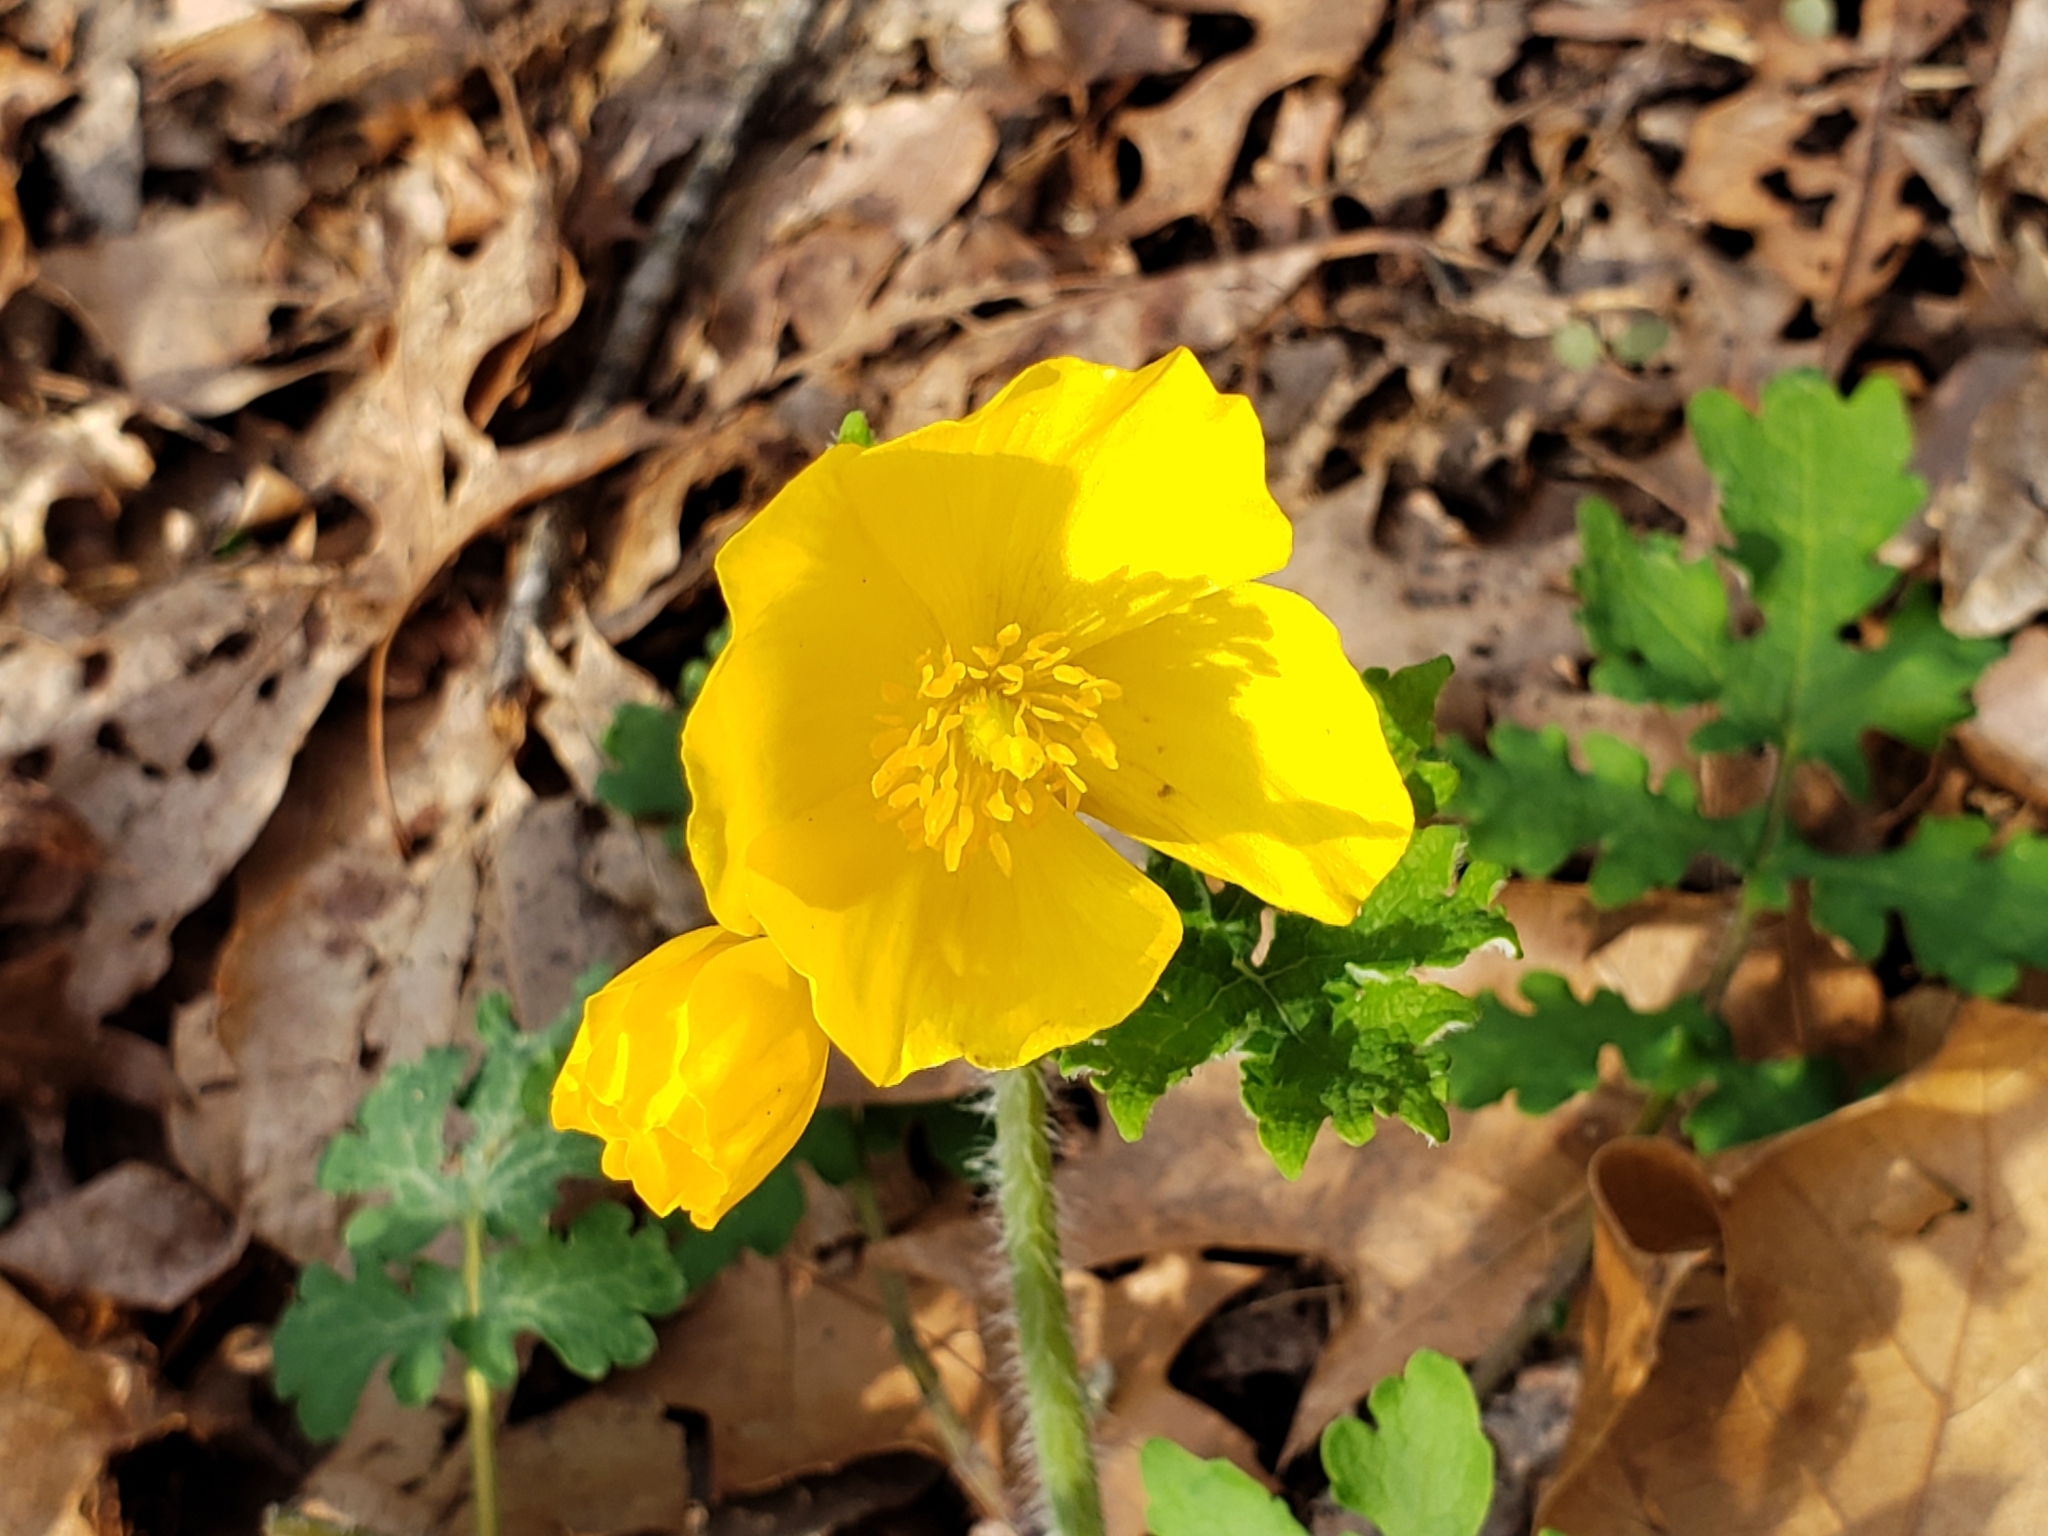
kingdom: Plantae
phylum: Tracheophyta
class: Magnoliopsida
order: Ranunculales
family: Papaveraceae
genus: Stylophorum
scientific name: Stylophorum diphyllum
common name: Celandine poppy
